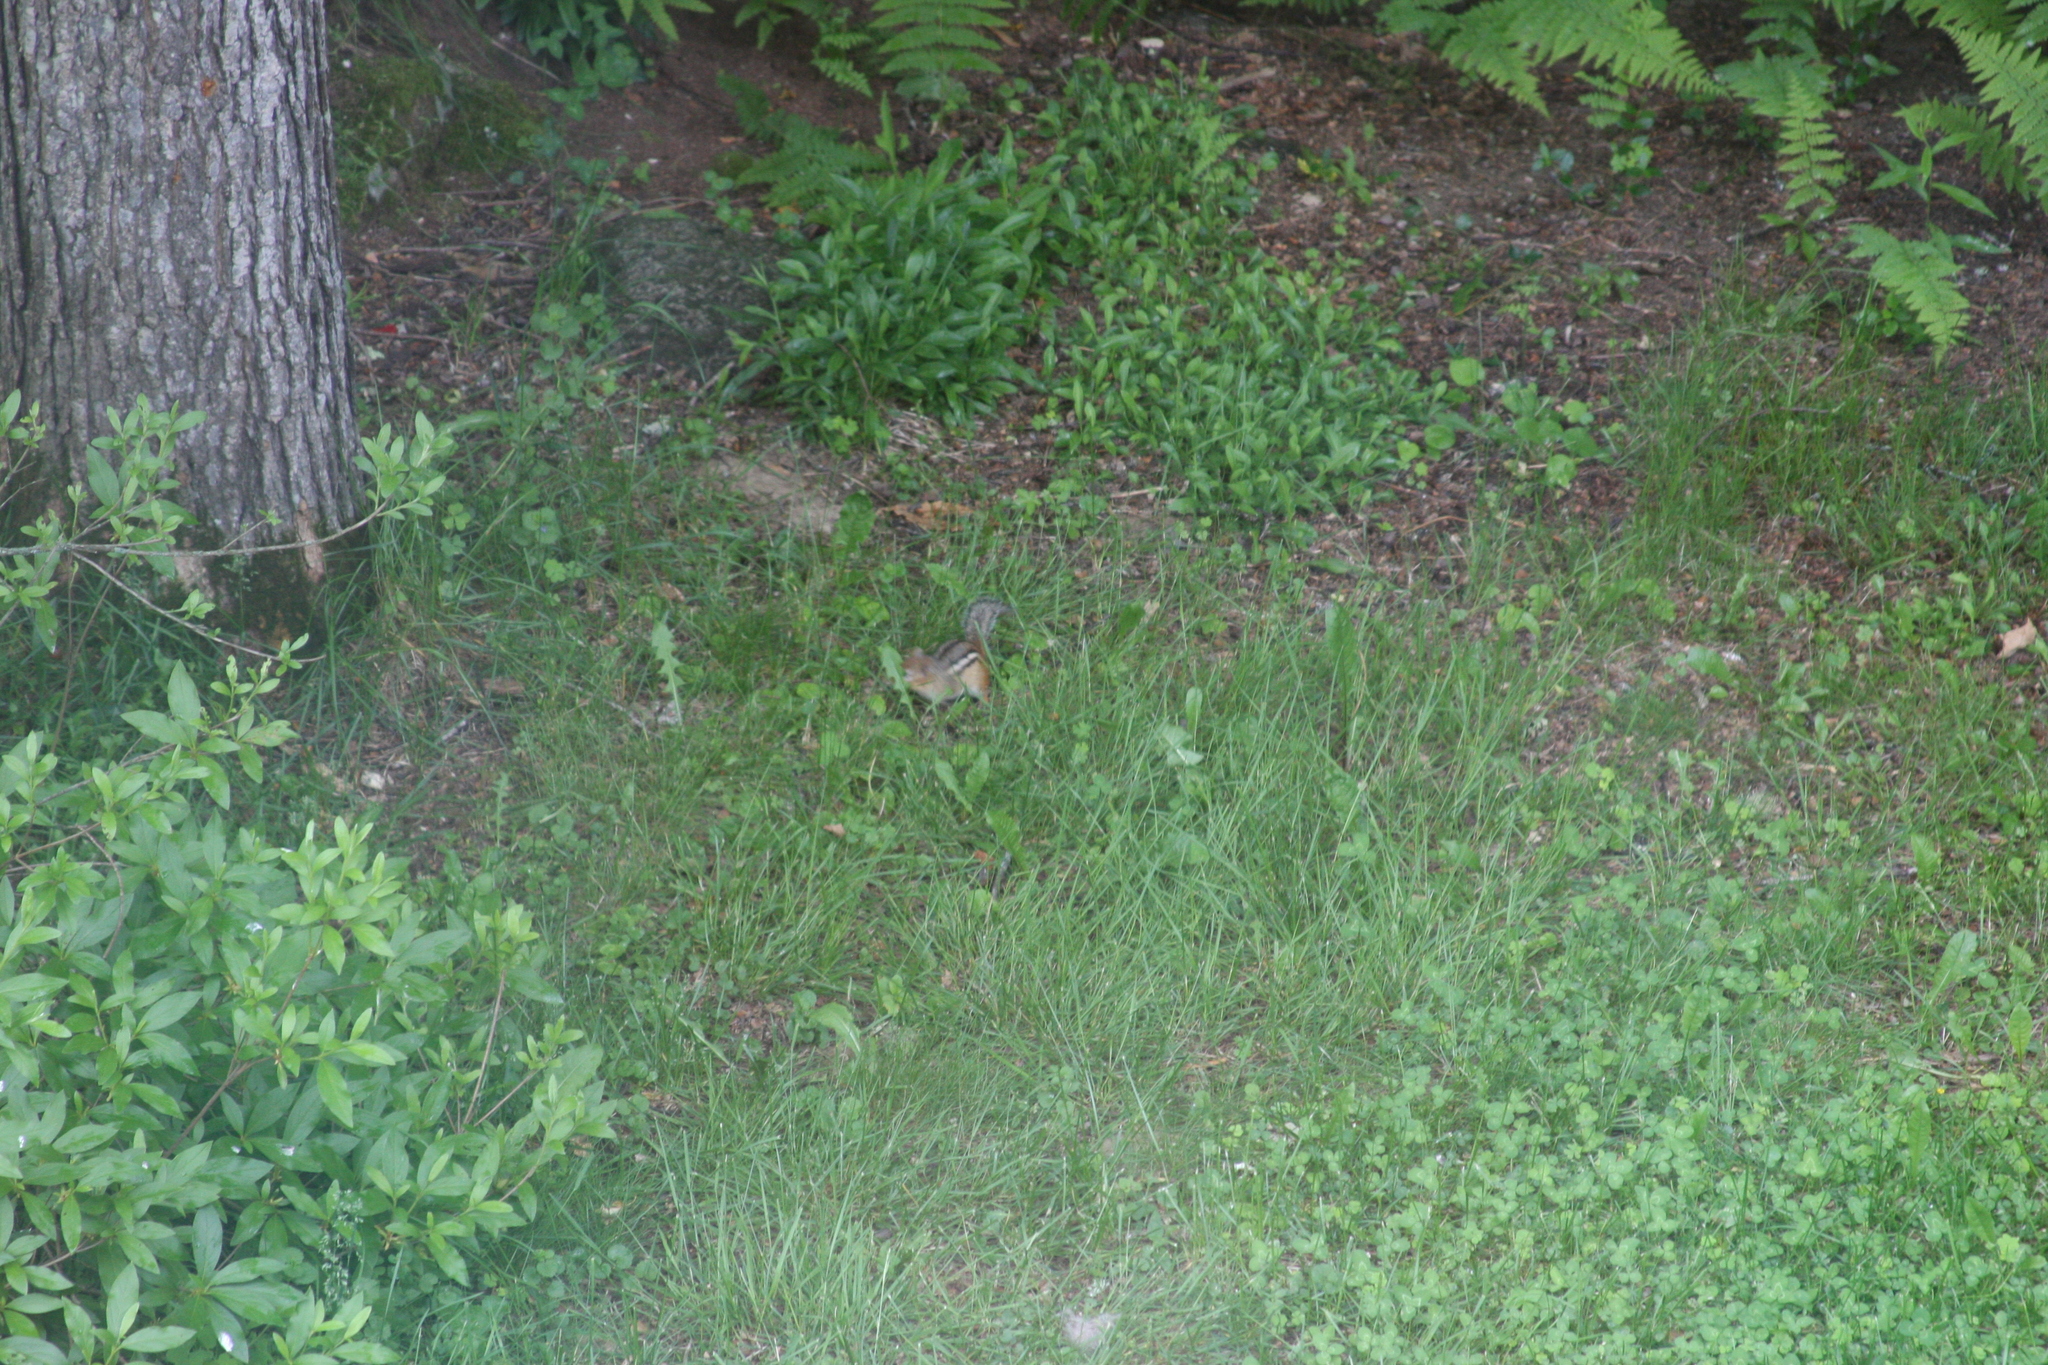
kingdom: Animalia
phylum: Chordata
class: Mammalia
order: Rodentia
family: Sciuridae
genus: Tamias
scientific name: Tamias striatus
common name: Eastern chipmunk
